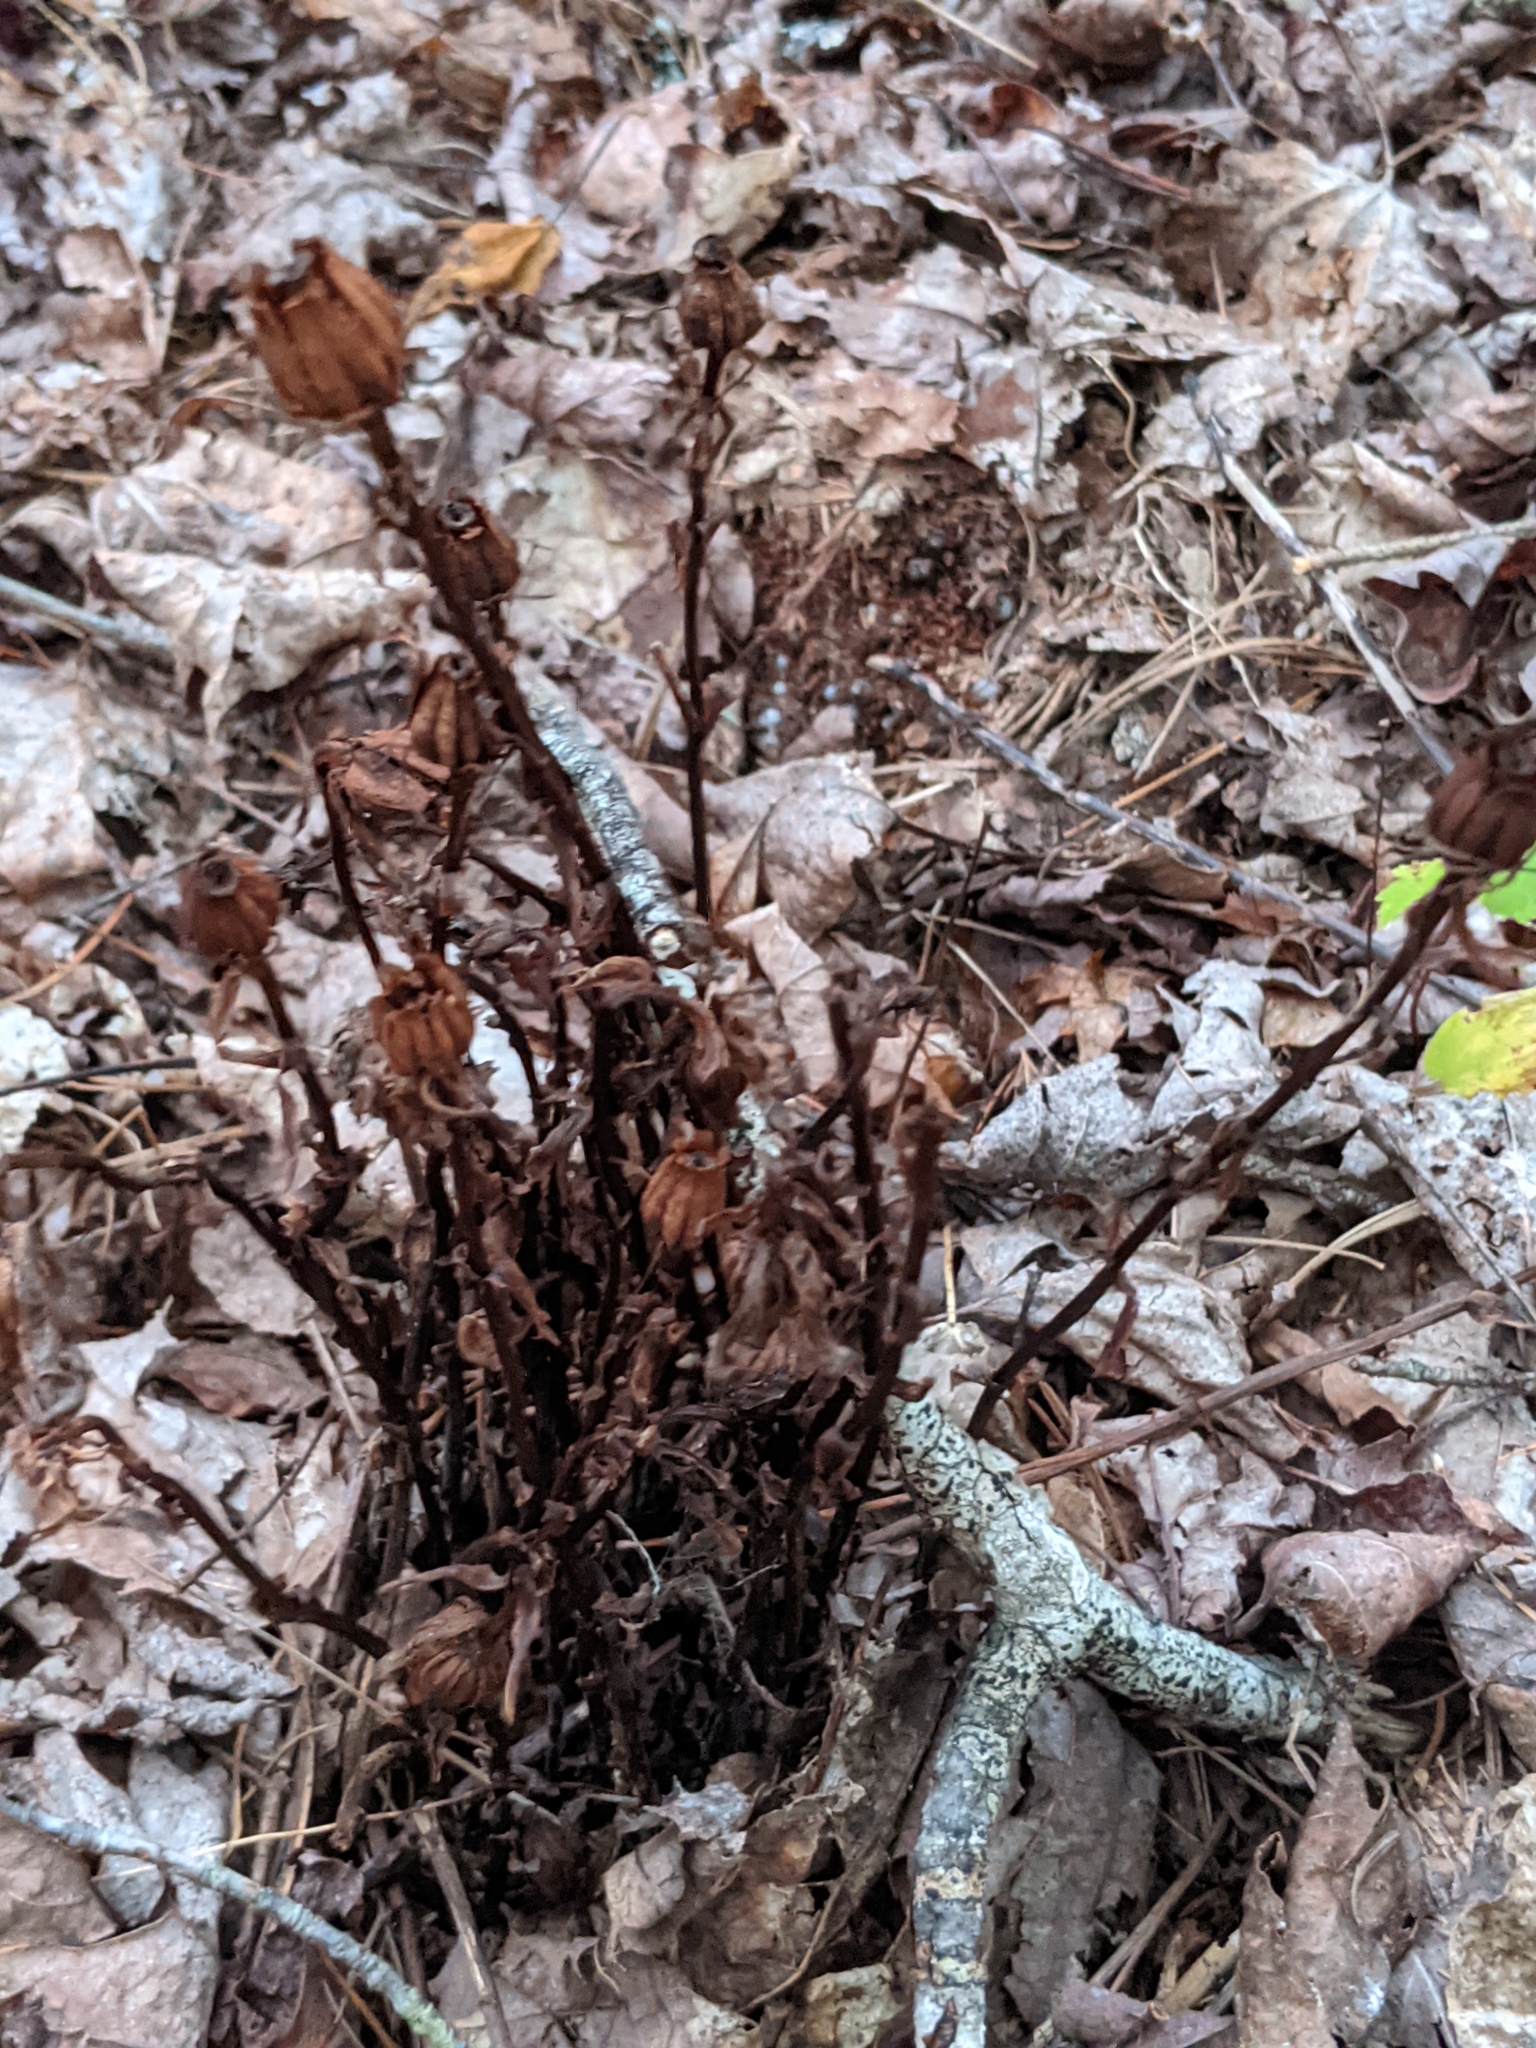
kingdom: Plantae
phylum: Tracheophyta
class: Magnoliopsida
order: Ericales
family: Ericaceae
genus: Monotropa
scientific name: Monotropa uniflora
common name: Convulsion root
